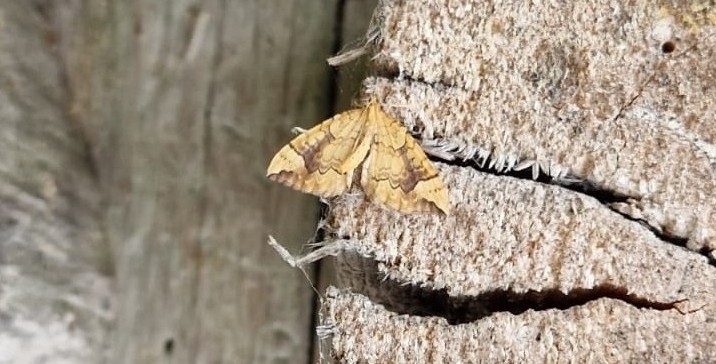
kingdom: Animalia
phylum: Arthropoda
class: Insecta
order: Lepidoptera
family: Geometridae
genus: Eulithis
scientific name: Eulithis populata
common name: Northern spinach
